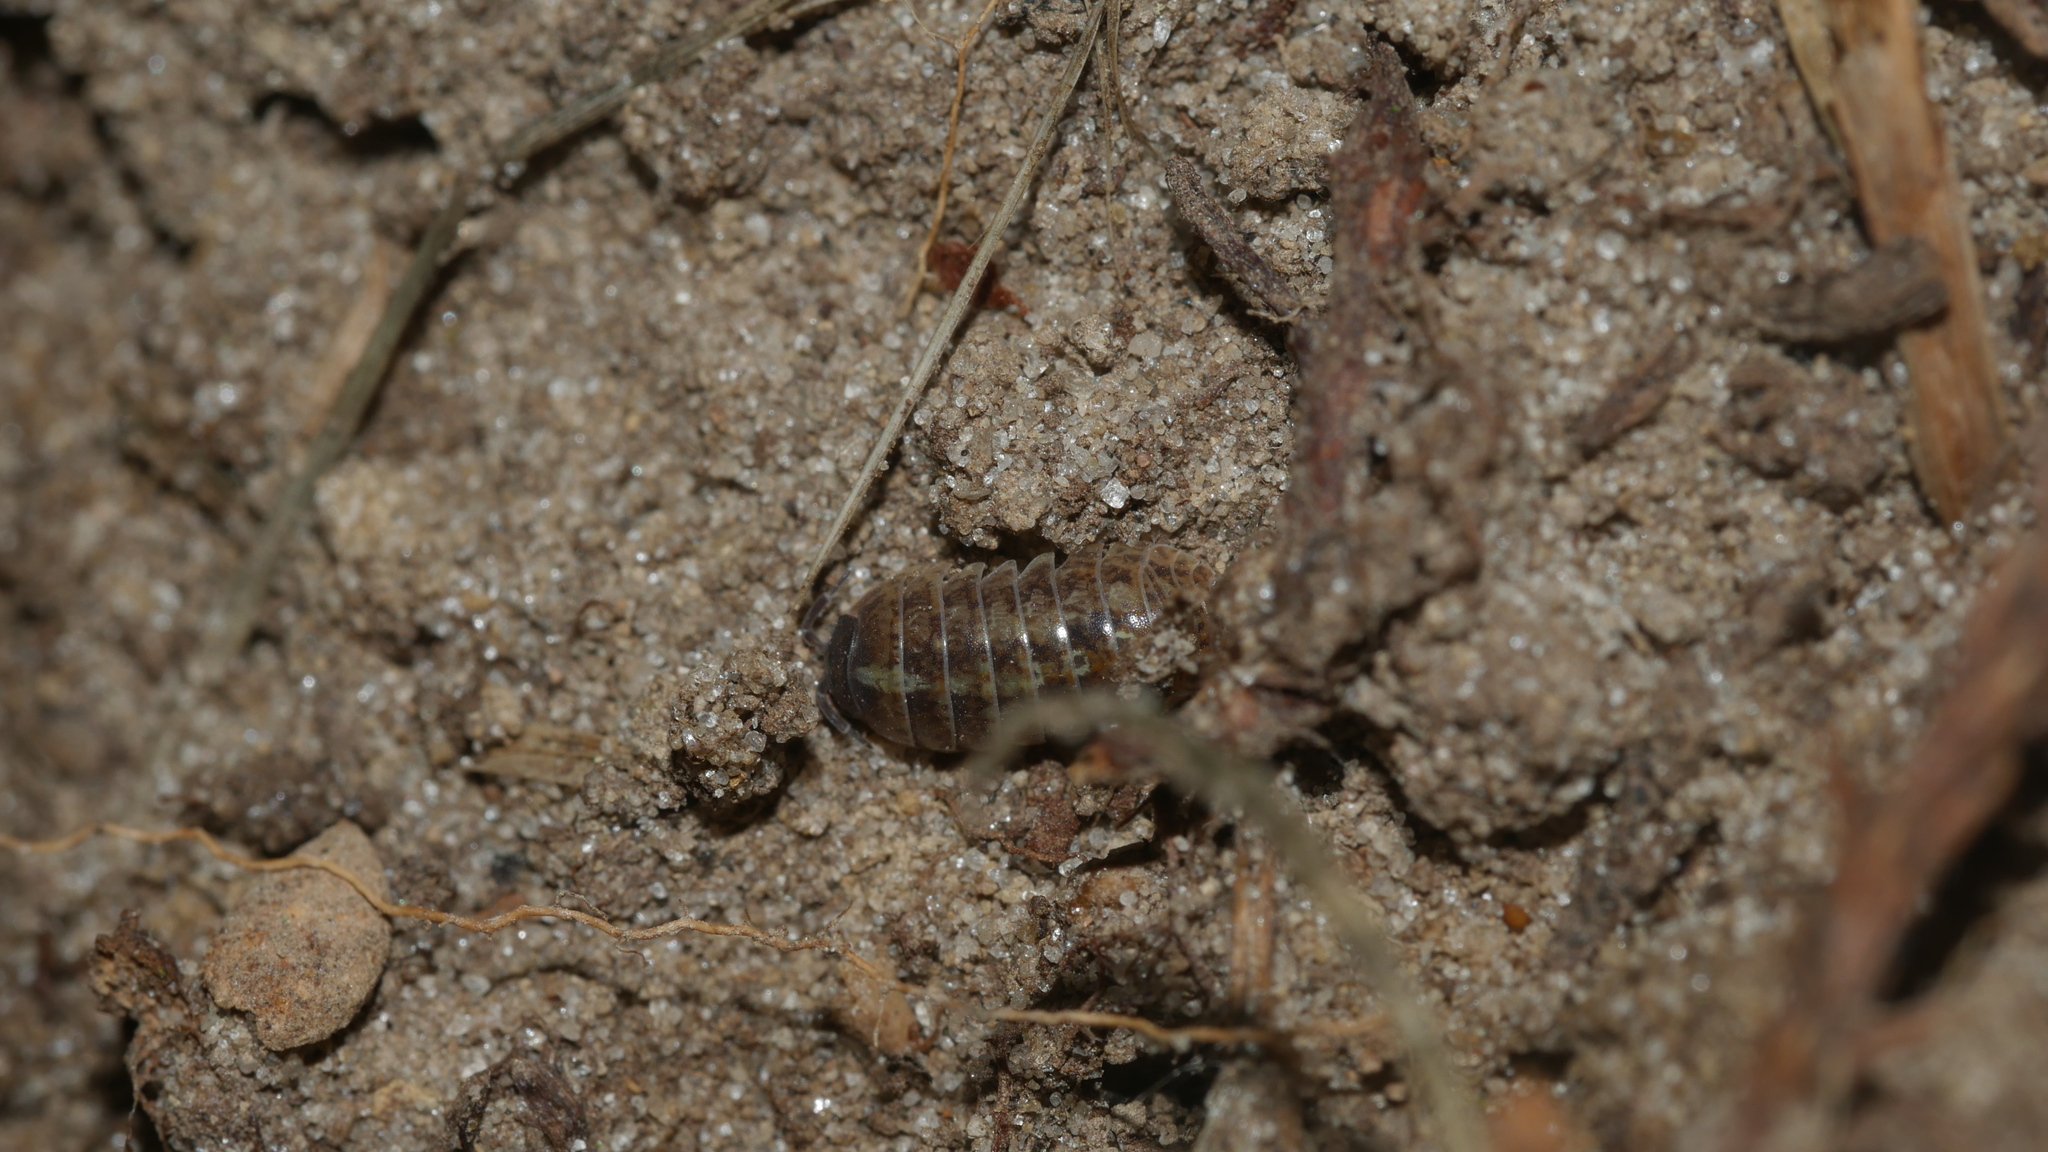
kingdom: Animalia
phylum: Arthropoda
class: Malacostraca
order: Isopoda
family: Armadillidiidae
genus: Armadillidium
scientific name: Armadillidium vulgare
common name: Common pill woodlouse
